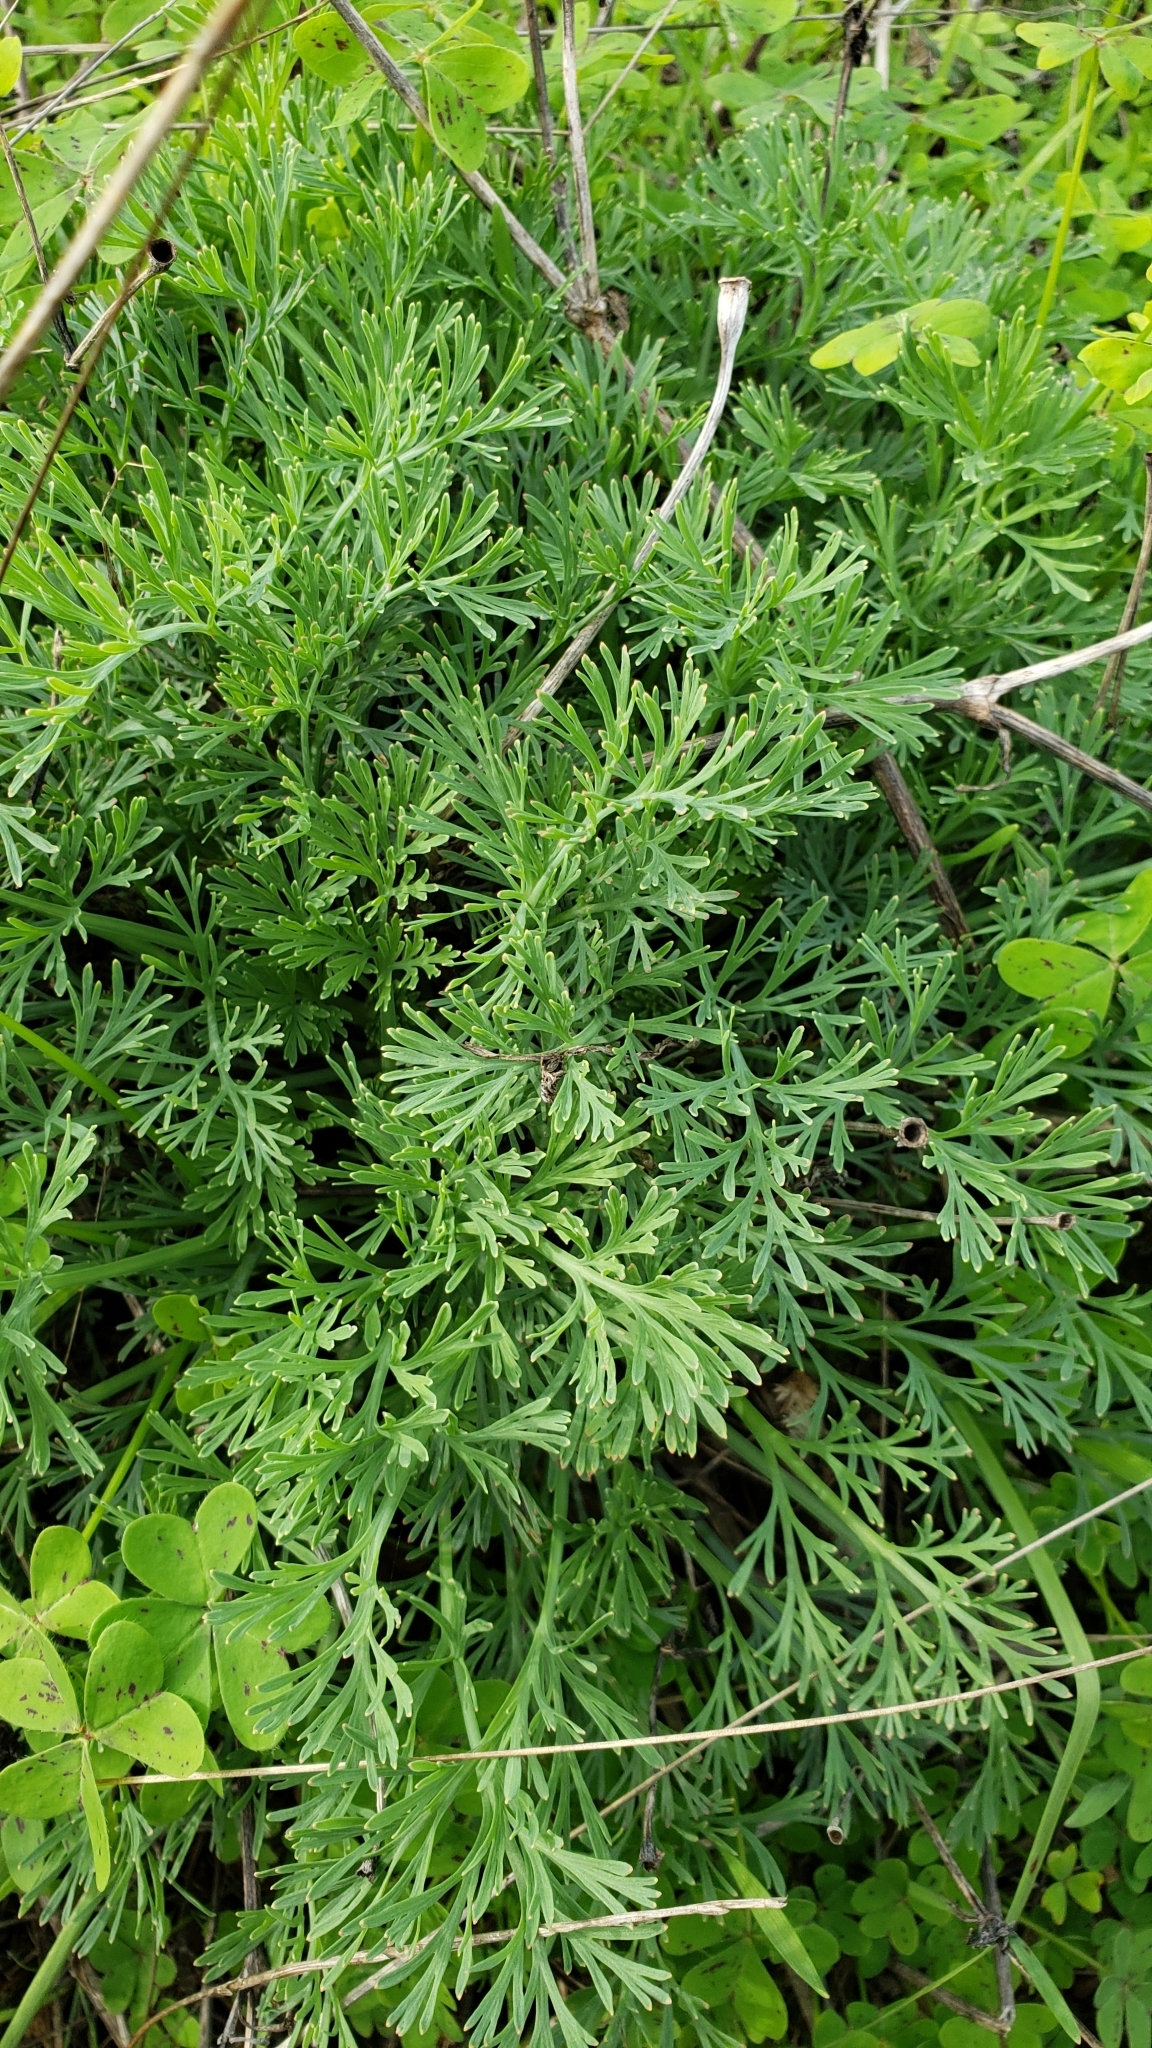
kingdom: Plantae
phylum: Tracheophyta
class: Magnoliopsida
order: Ranunculales
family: Papaveraceae
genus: Eschscholzia
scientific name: Eschscholzia californica
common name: California poppy
